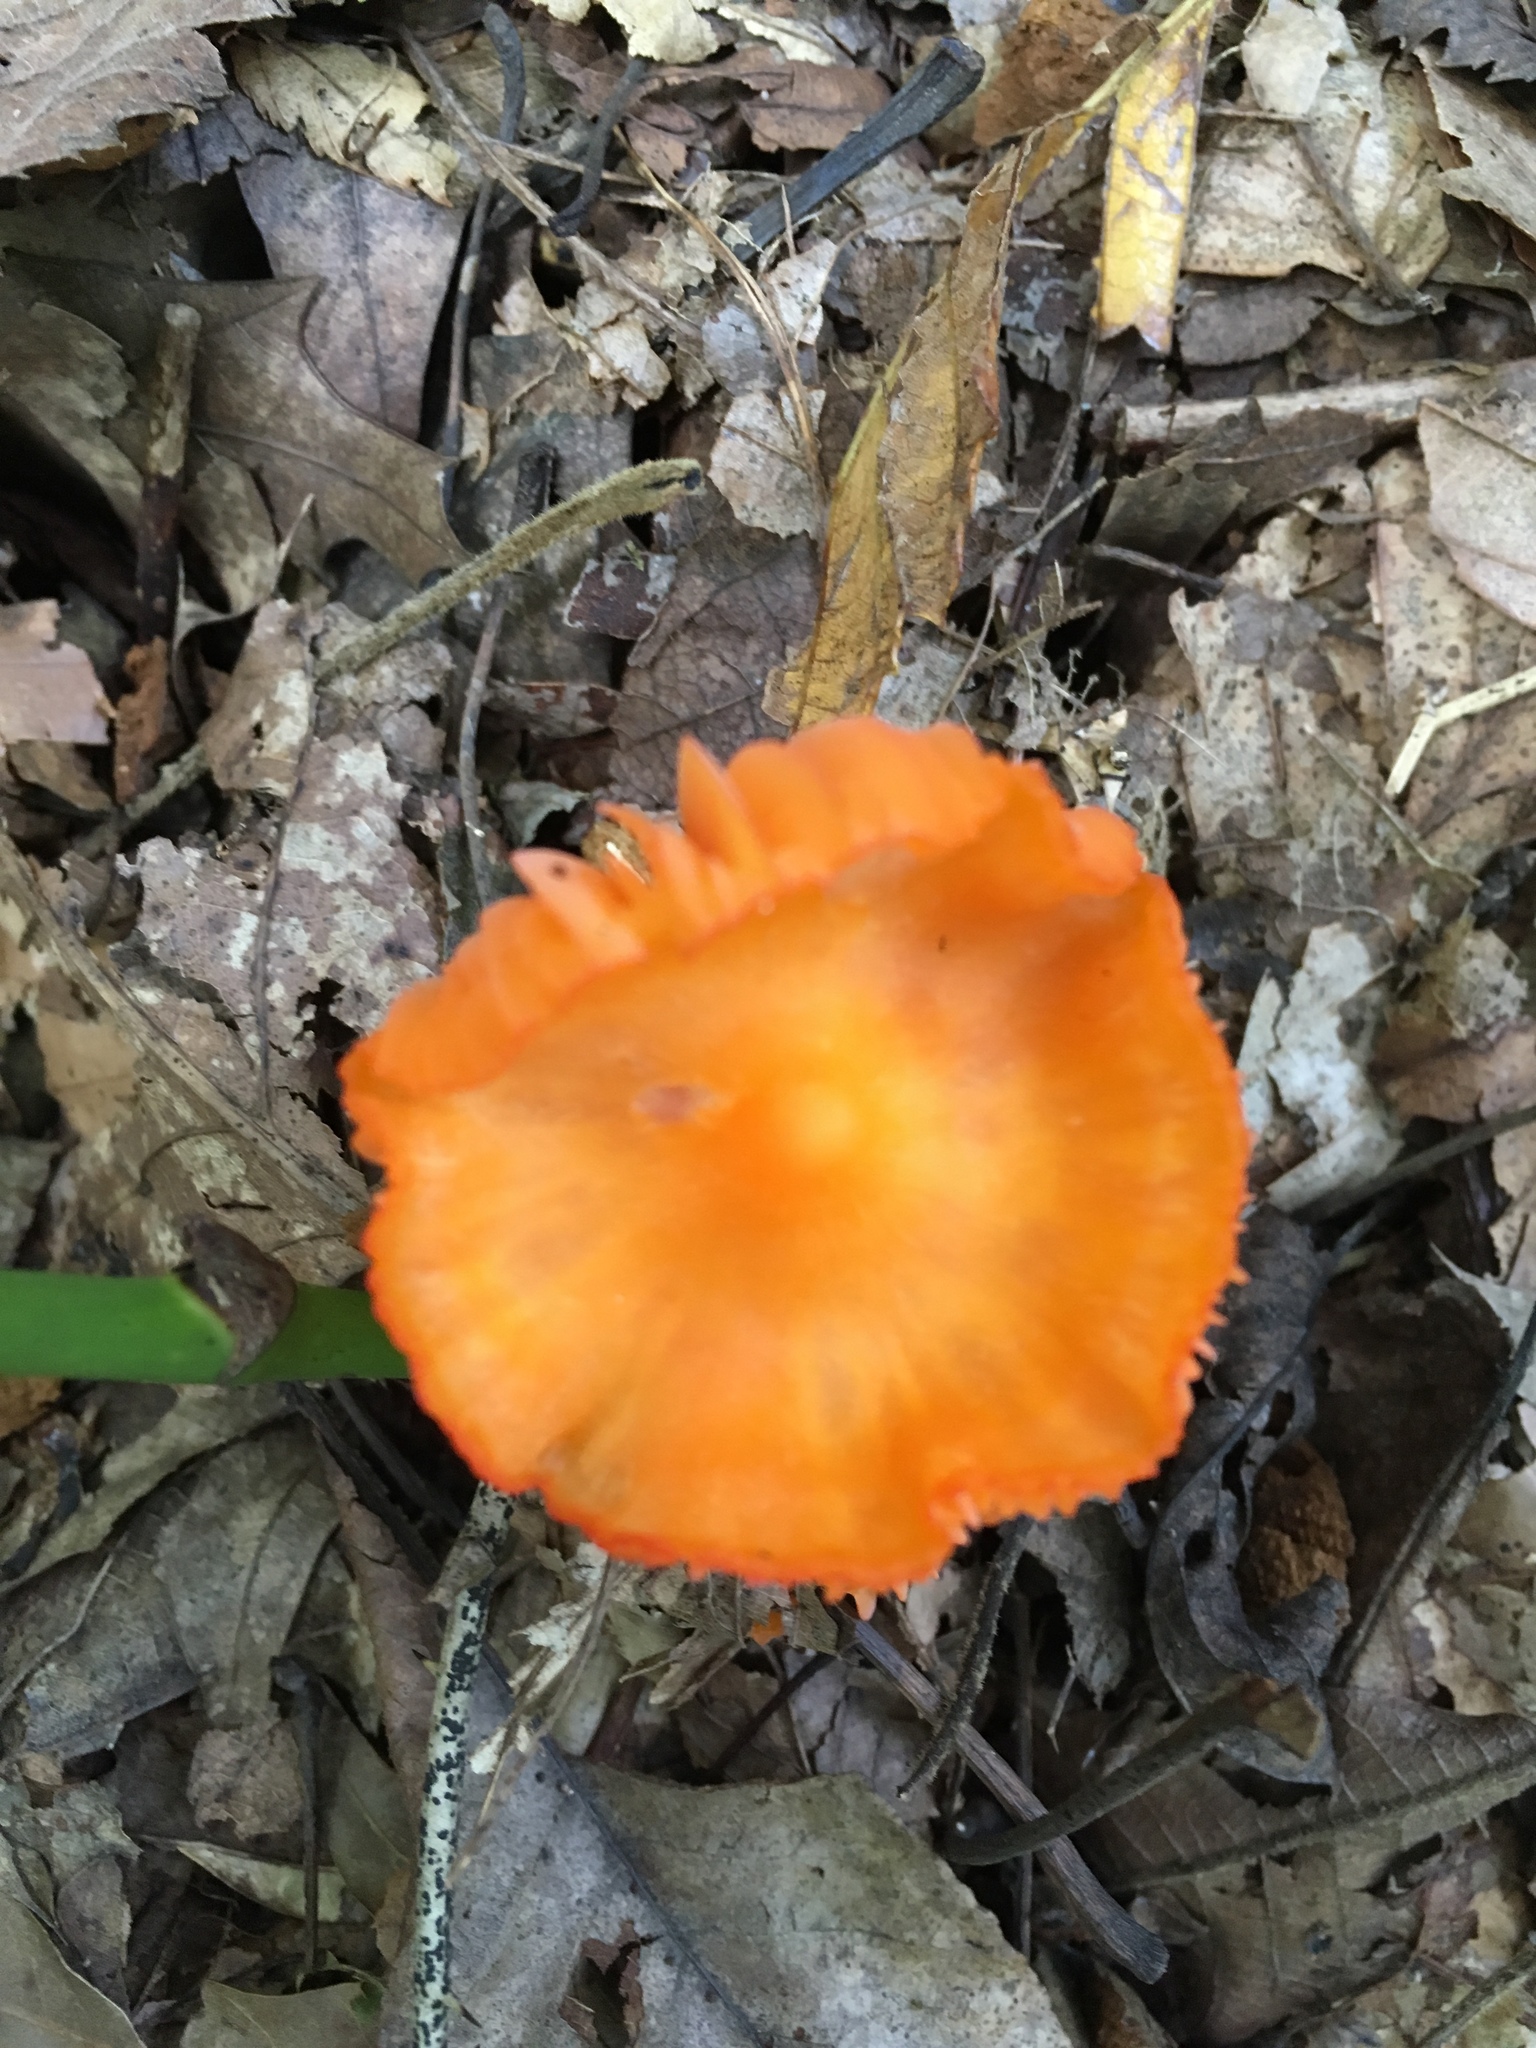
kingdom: Fungi
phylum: Basidiomycota
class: Agaricomycetes
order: Agaricales
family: Hygrophoraceae
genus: Humidicutis
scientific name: Humidicutis marginata
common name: Orange gilled waxcap
